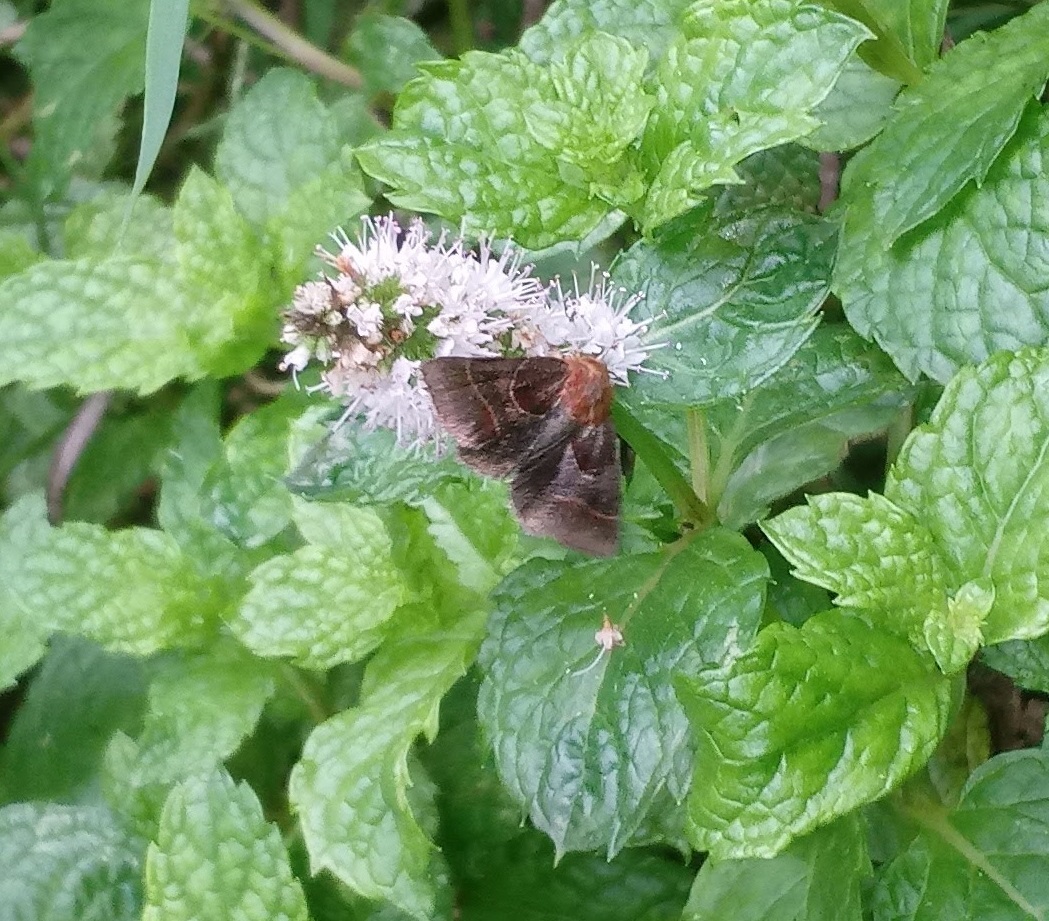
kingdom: Animalia
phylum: Arthropoda
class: Insecta
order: Lepidoptera
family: Noctuidae
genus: Schinia
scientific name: Schinia arcigera
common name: Arcigera flower moth
